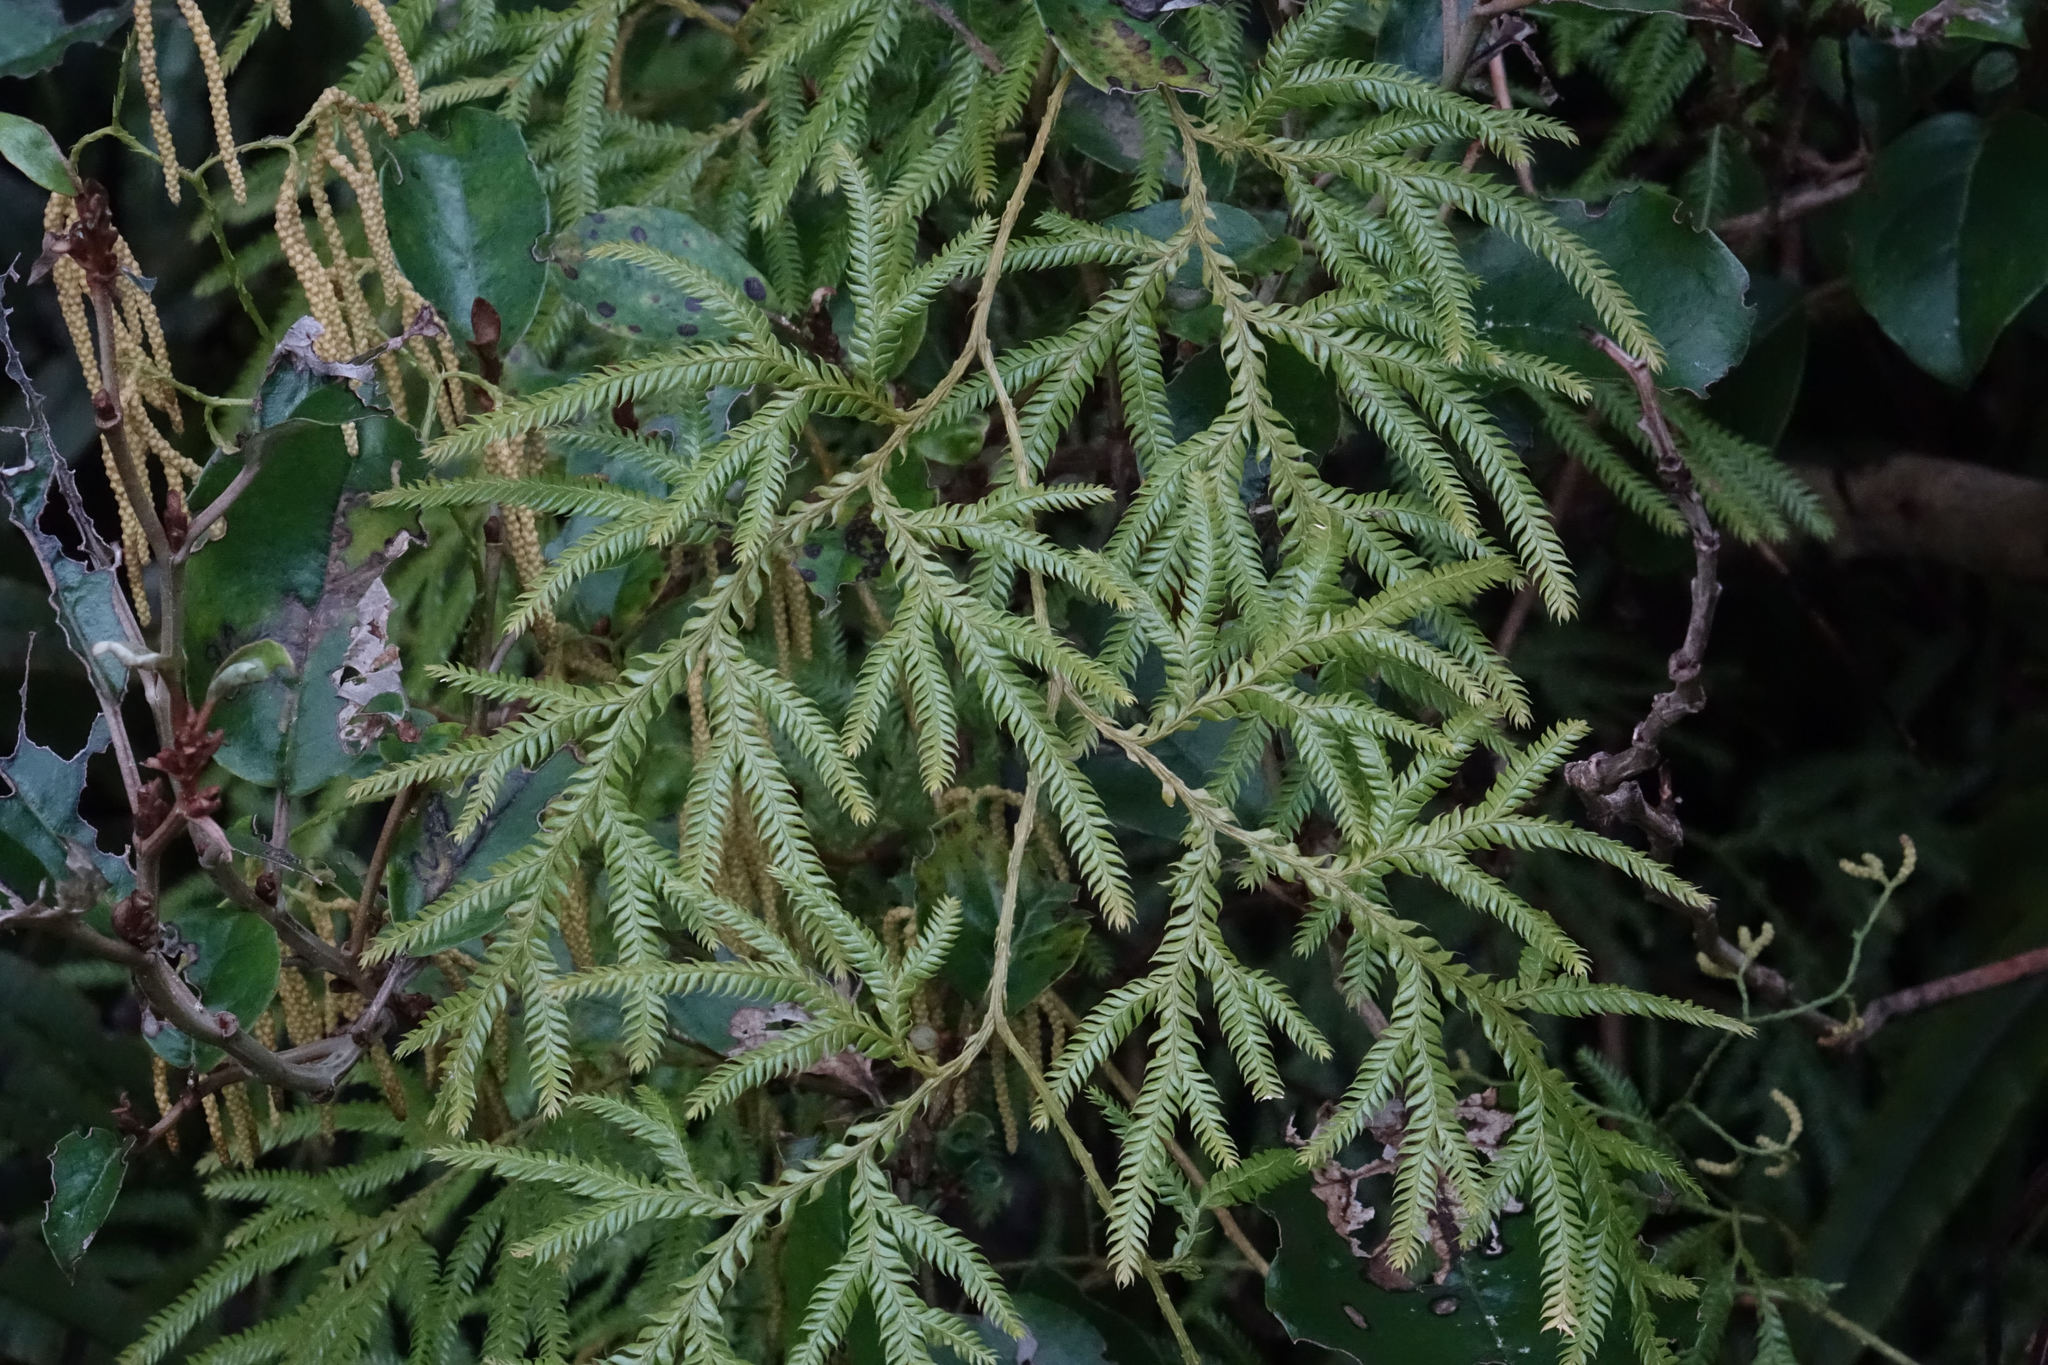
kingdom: Plantae
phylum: Tracheophyta
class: Lycopodiopsida
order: Lycopodiales
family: Lycopodiaceae
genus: Lycopodium
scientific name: Lycopodium volubile
